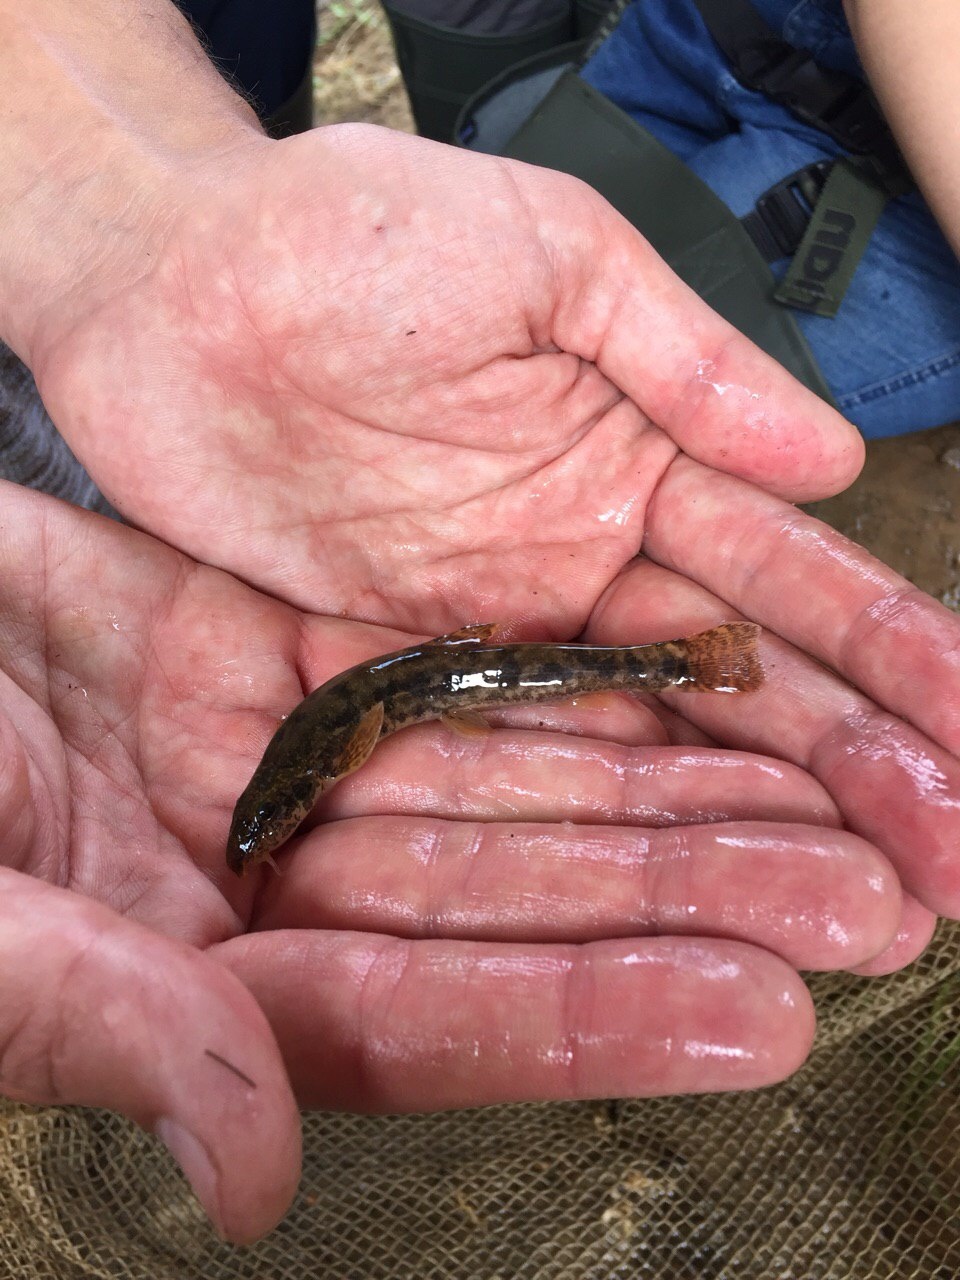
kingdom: Animalia
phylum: Chordata
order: Cypriniformes
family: Nemacheilidae
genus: Barbatula
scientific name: Barbatula barbatula
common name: Stone loach
